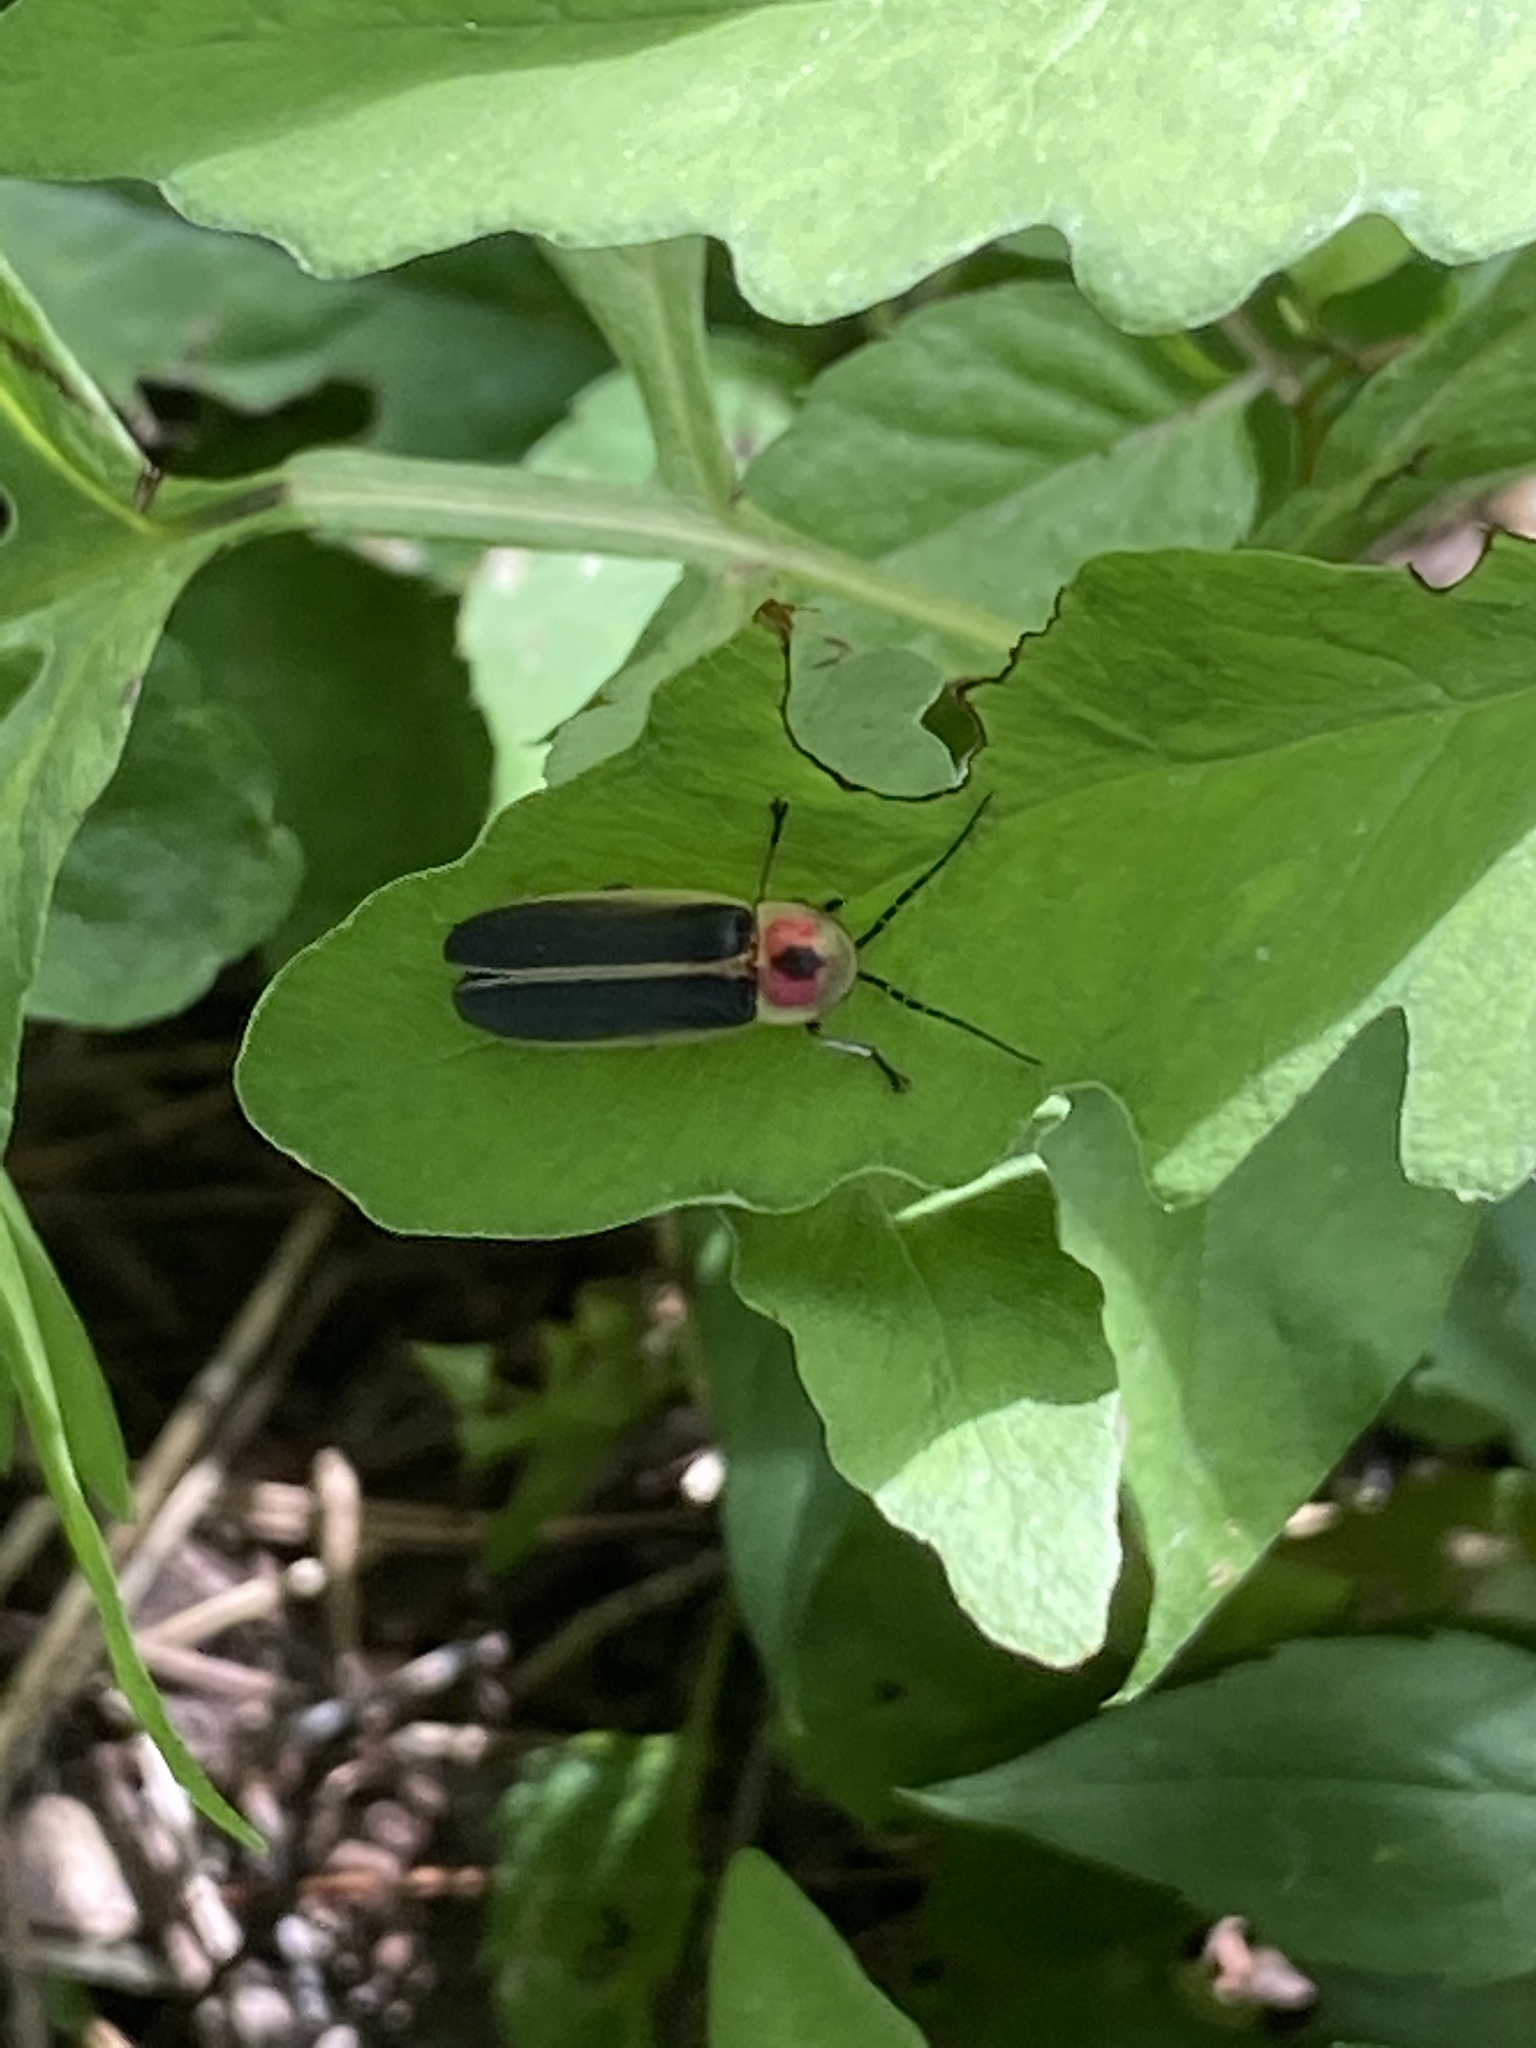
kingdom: Animalia
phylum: Arthropoda
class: Insecta
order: Coleoptera
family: Lampyridae
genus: Photinus
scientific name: Photinus pyralis
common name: Big dipper firefly
